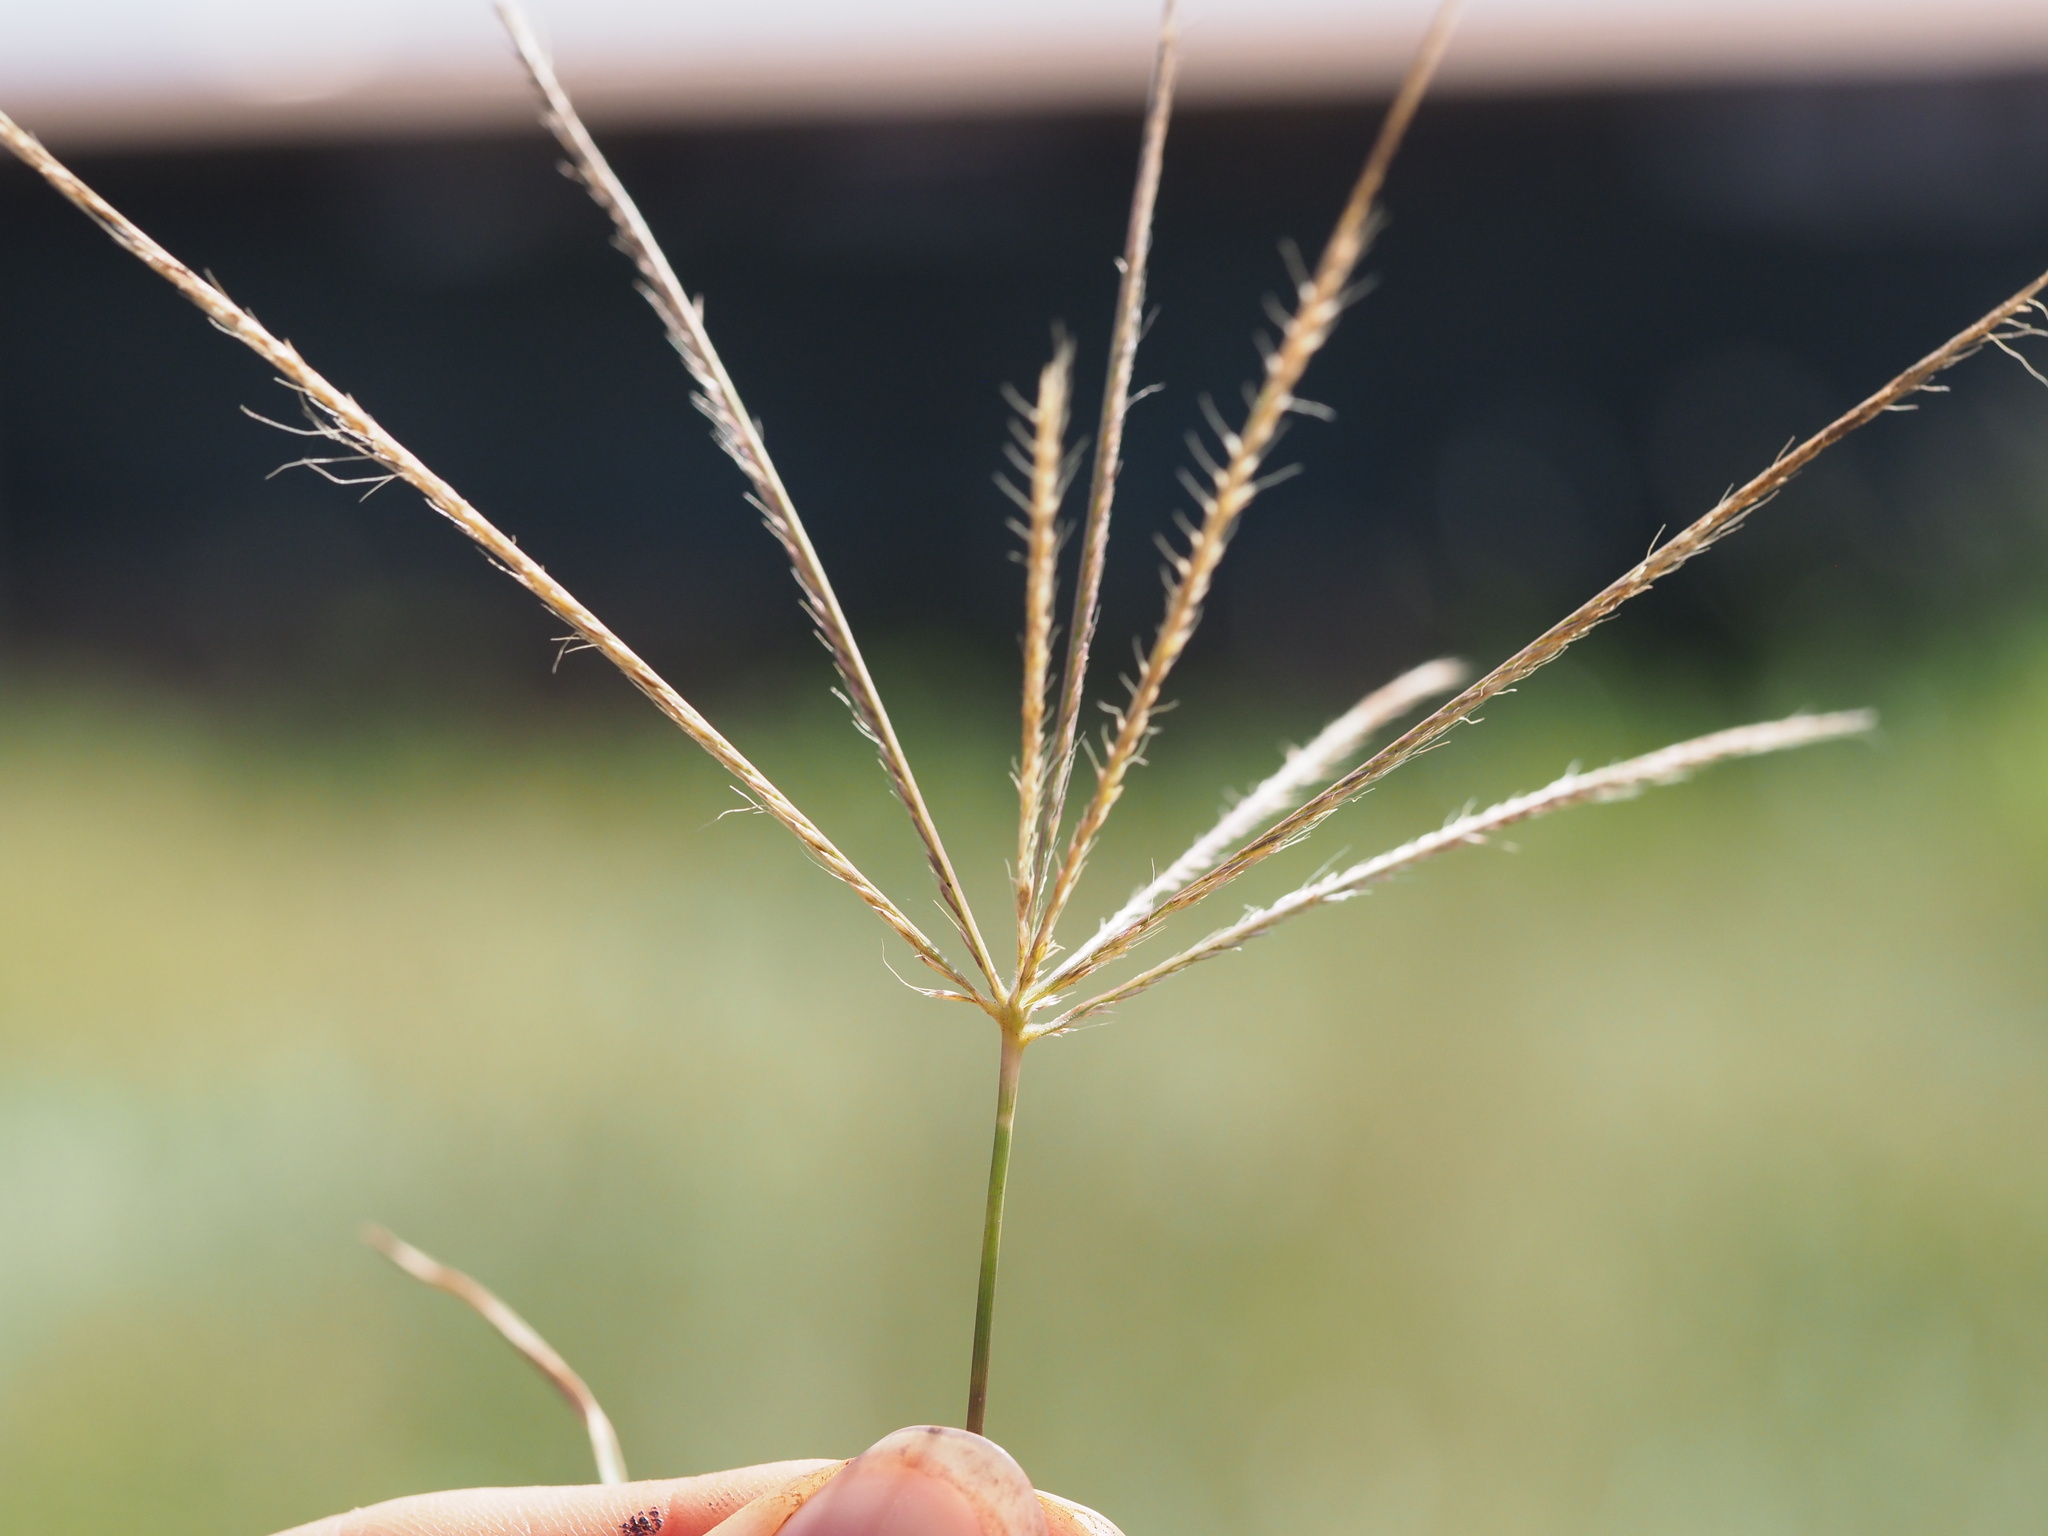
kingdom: Plantae
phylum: Tracheophyta
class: Liliopsida
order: Poales
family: Poaceae
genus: Chloris
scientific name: Chloris divaricata
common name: Spreading windmill grass
